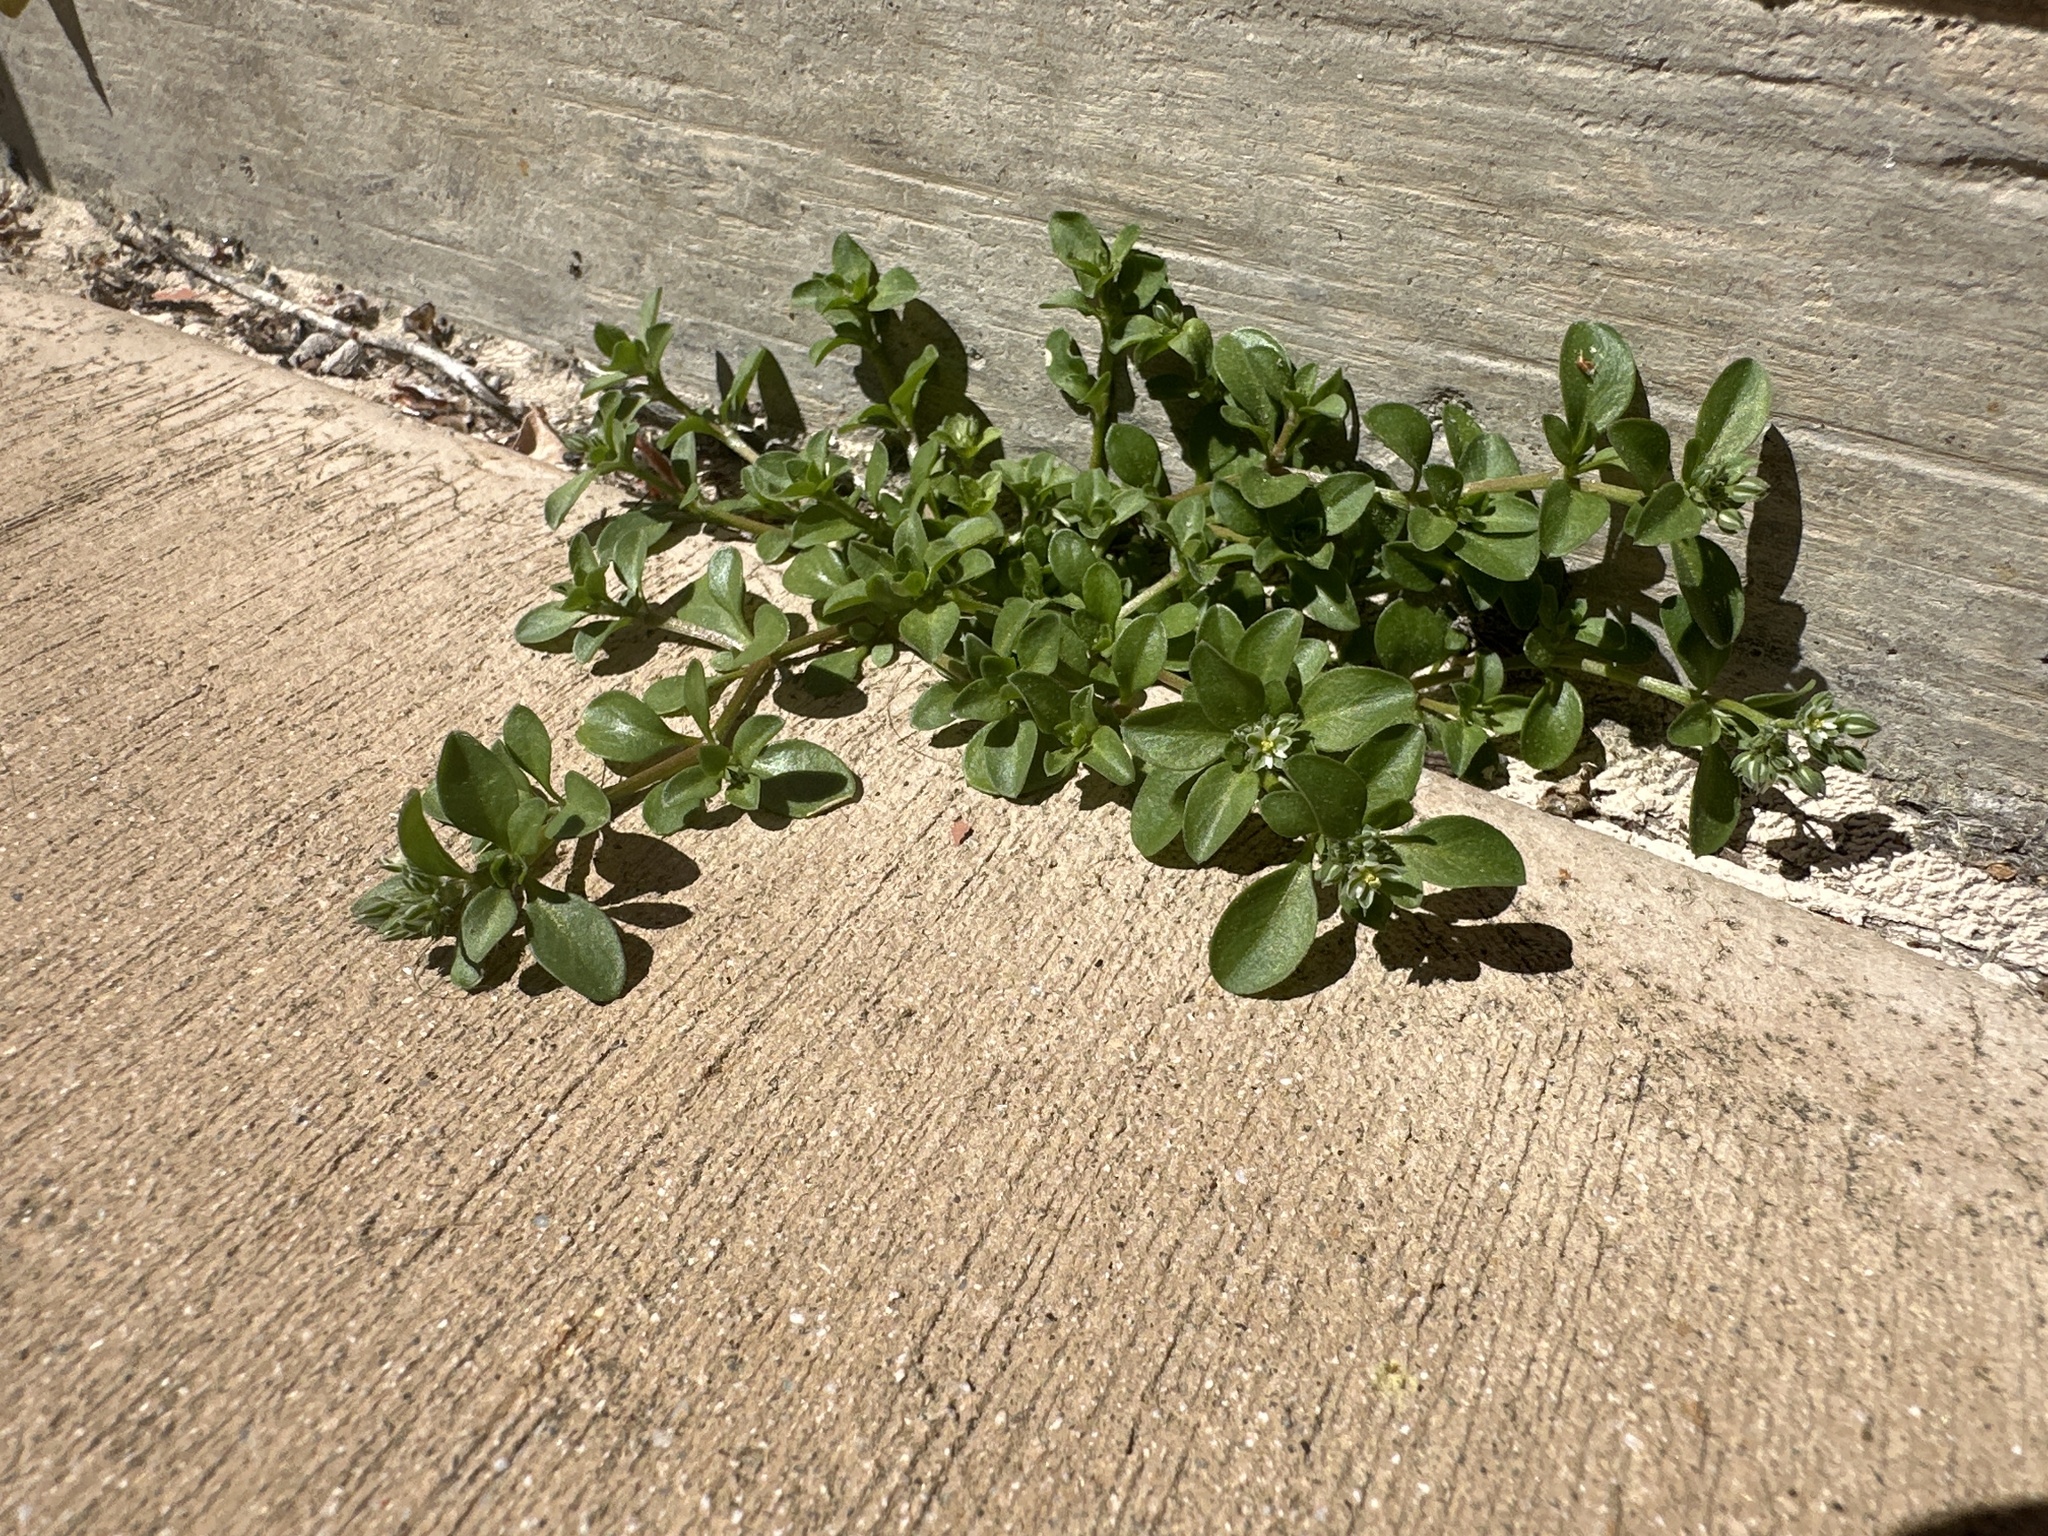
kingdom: Plantae
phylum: Tracheophyta
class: Magnoliopsida
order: Caryophyllales
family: Caryophyllaceae
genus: Polycarpon
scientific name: Polycarpon tetraphyllum
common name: Four-leaved all-seed
